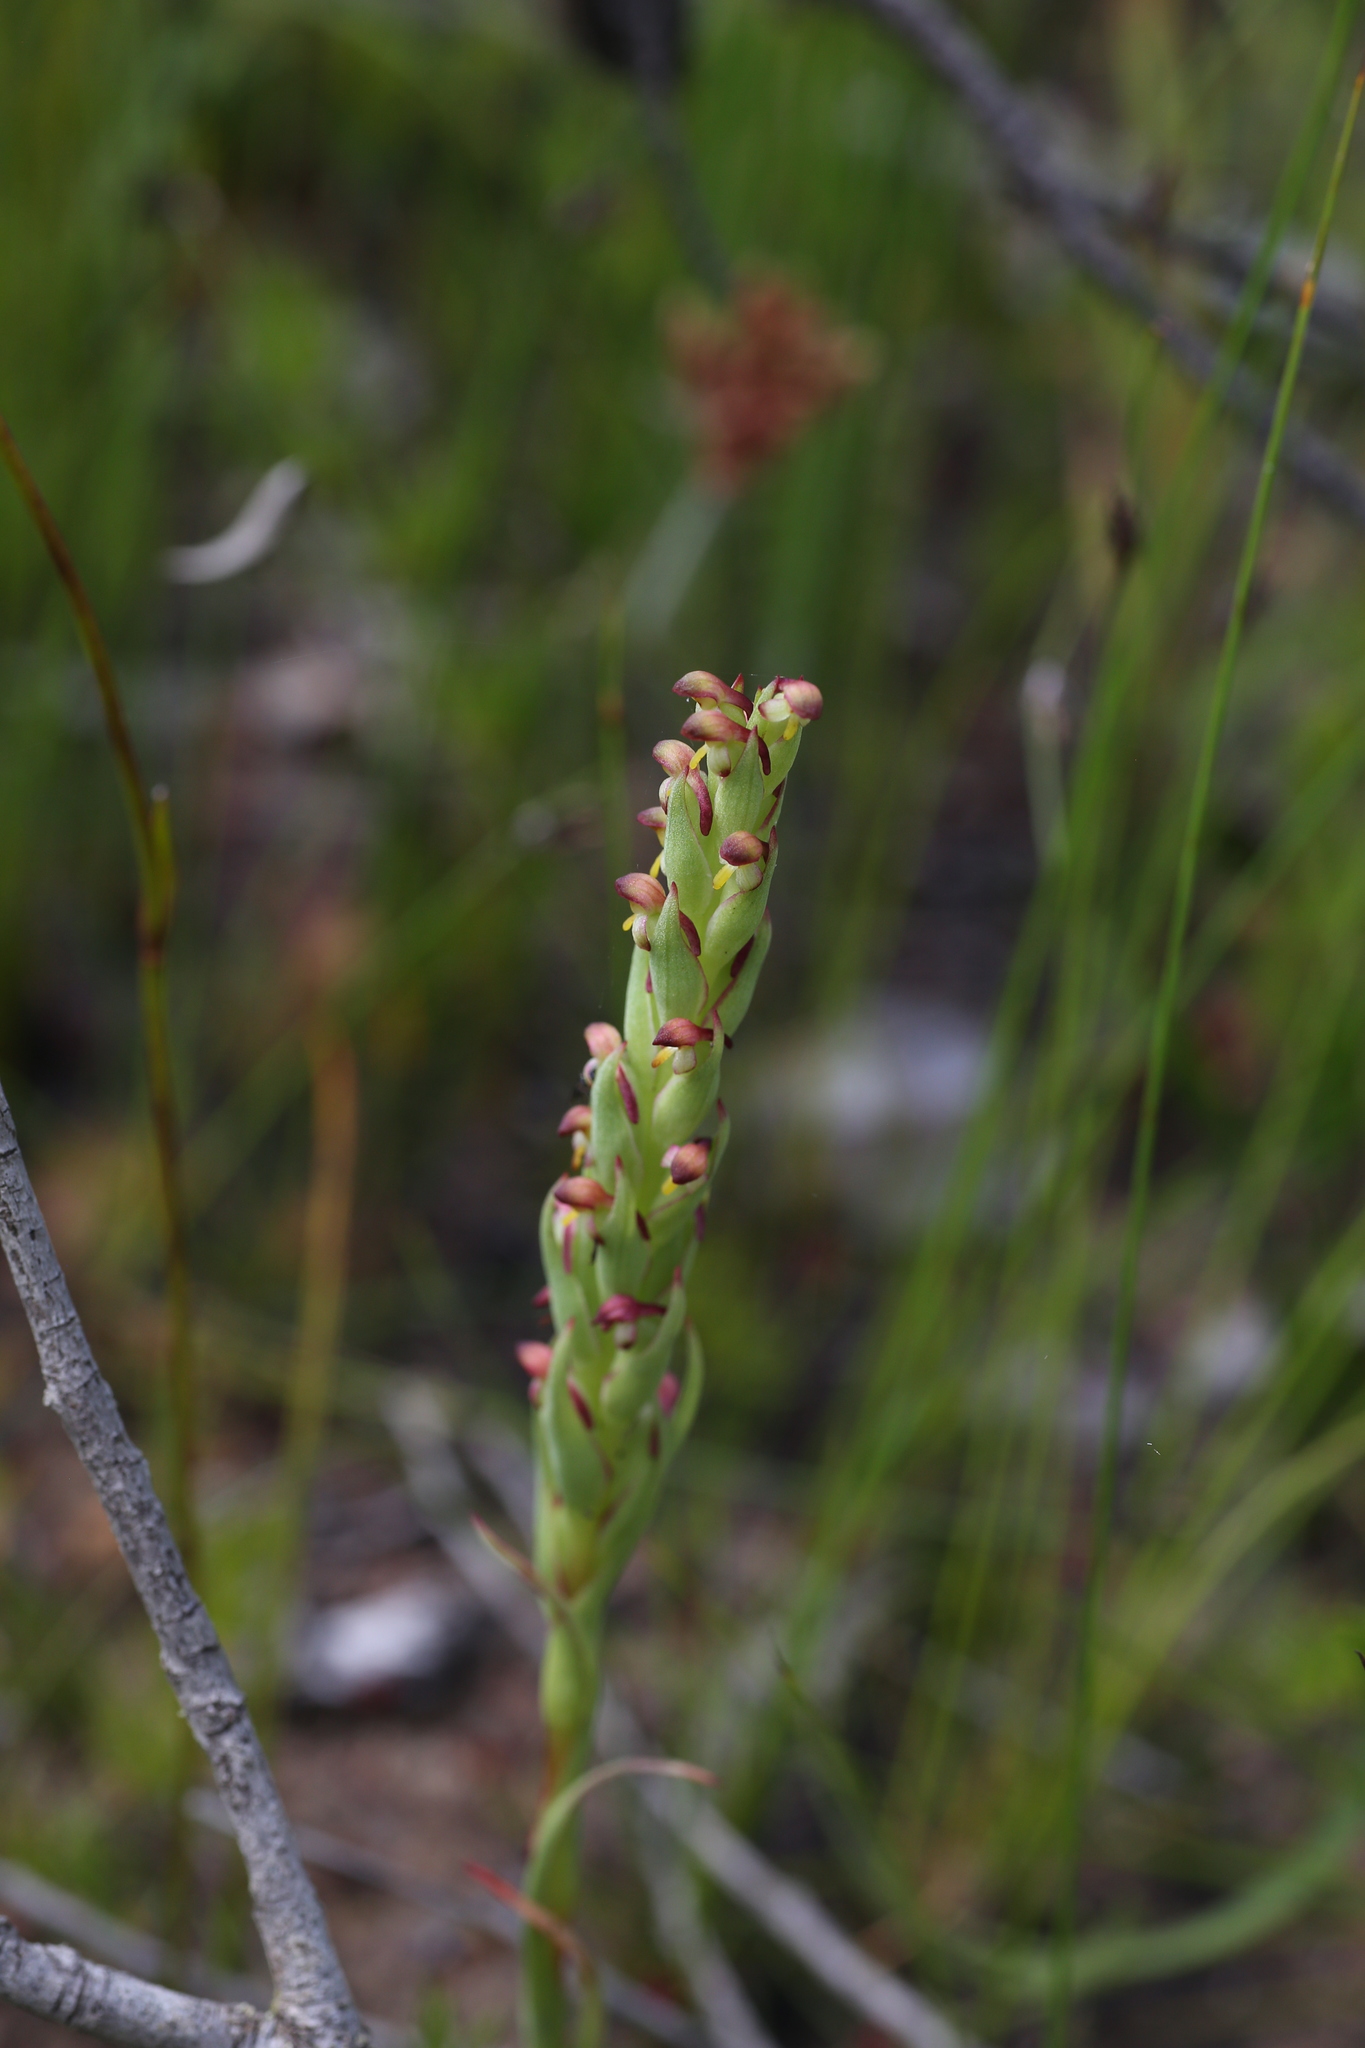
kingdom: Plantae
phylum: Tracheophyta
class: Liliopsida
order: Asparagales
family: Orchidaceae
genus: Disa
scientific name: Disa bracteata
